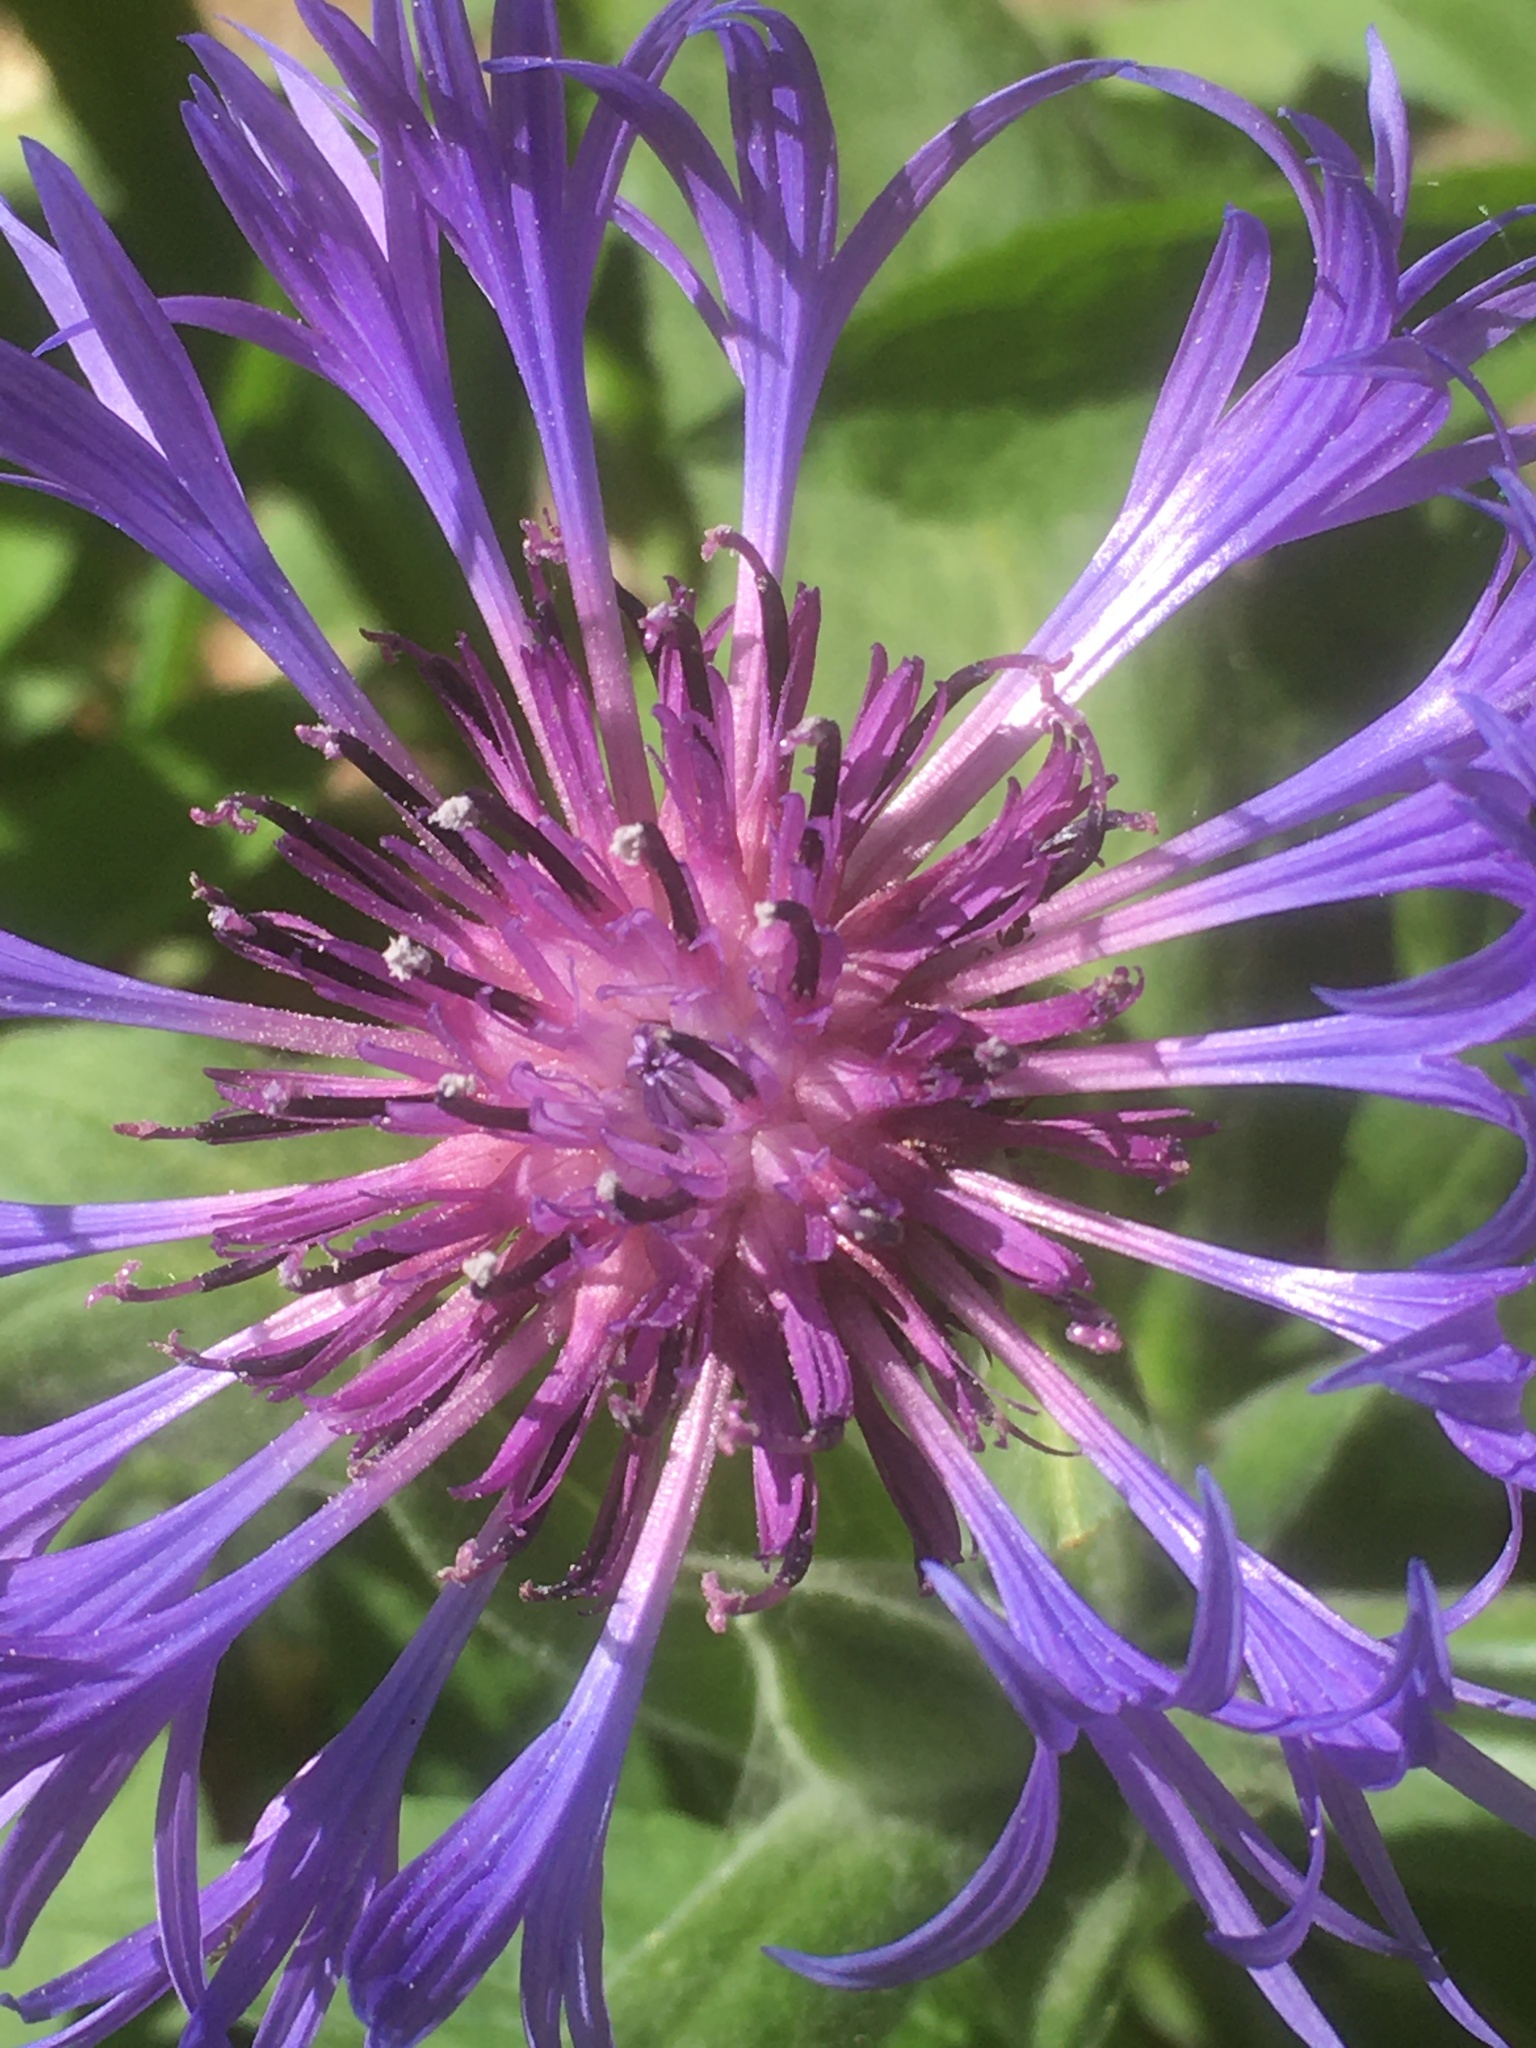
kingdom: Plantae
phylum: Tracheophyta
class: Magnoliopsida
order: Asterales
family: Asteraceae
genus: Centaurea
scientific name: Centaurea montana
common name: Perennial cornflower
